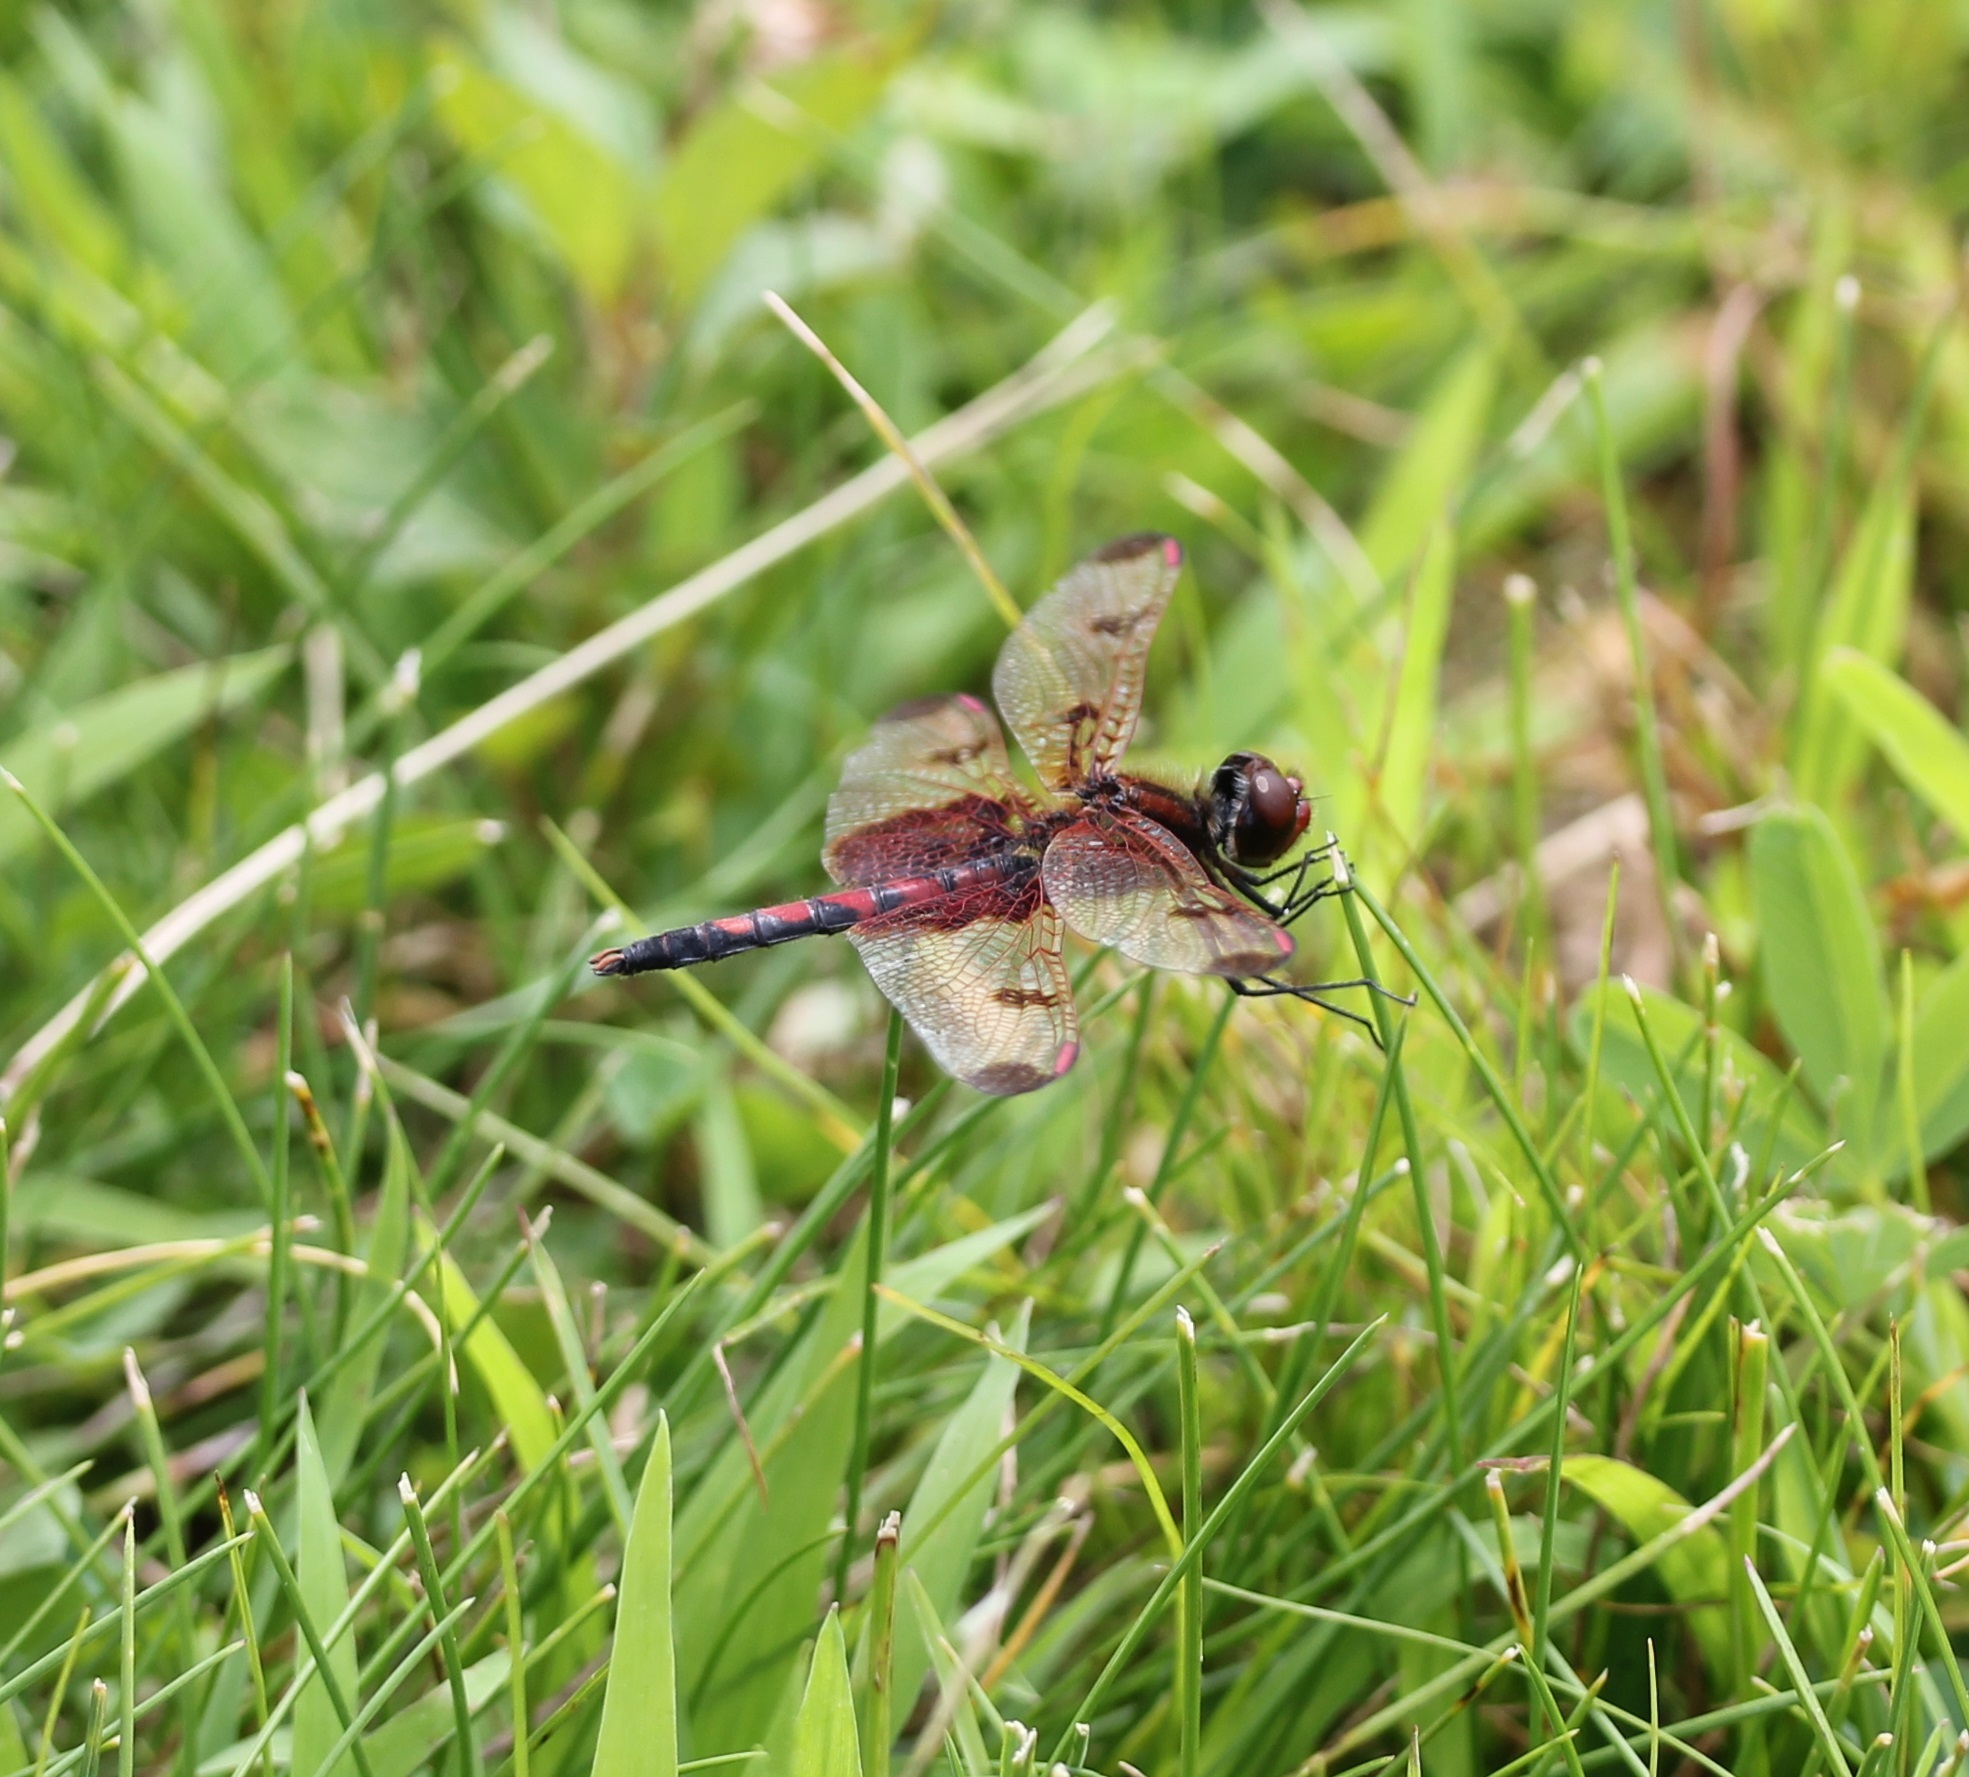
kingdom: Animalia
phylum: Arthropoda
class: Insecta
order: Odonata
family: Libellulidae
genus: Celithemis
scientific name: Celithemis elisa
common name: Calico pennant
